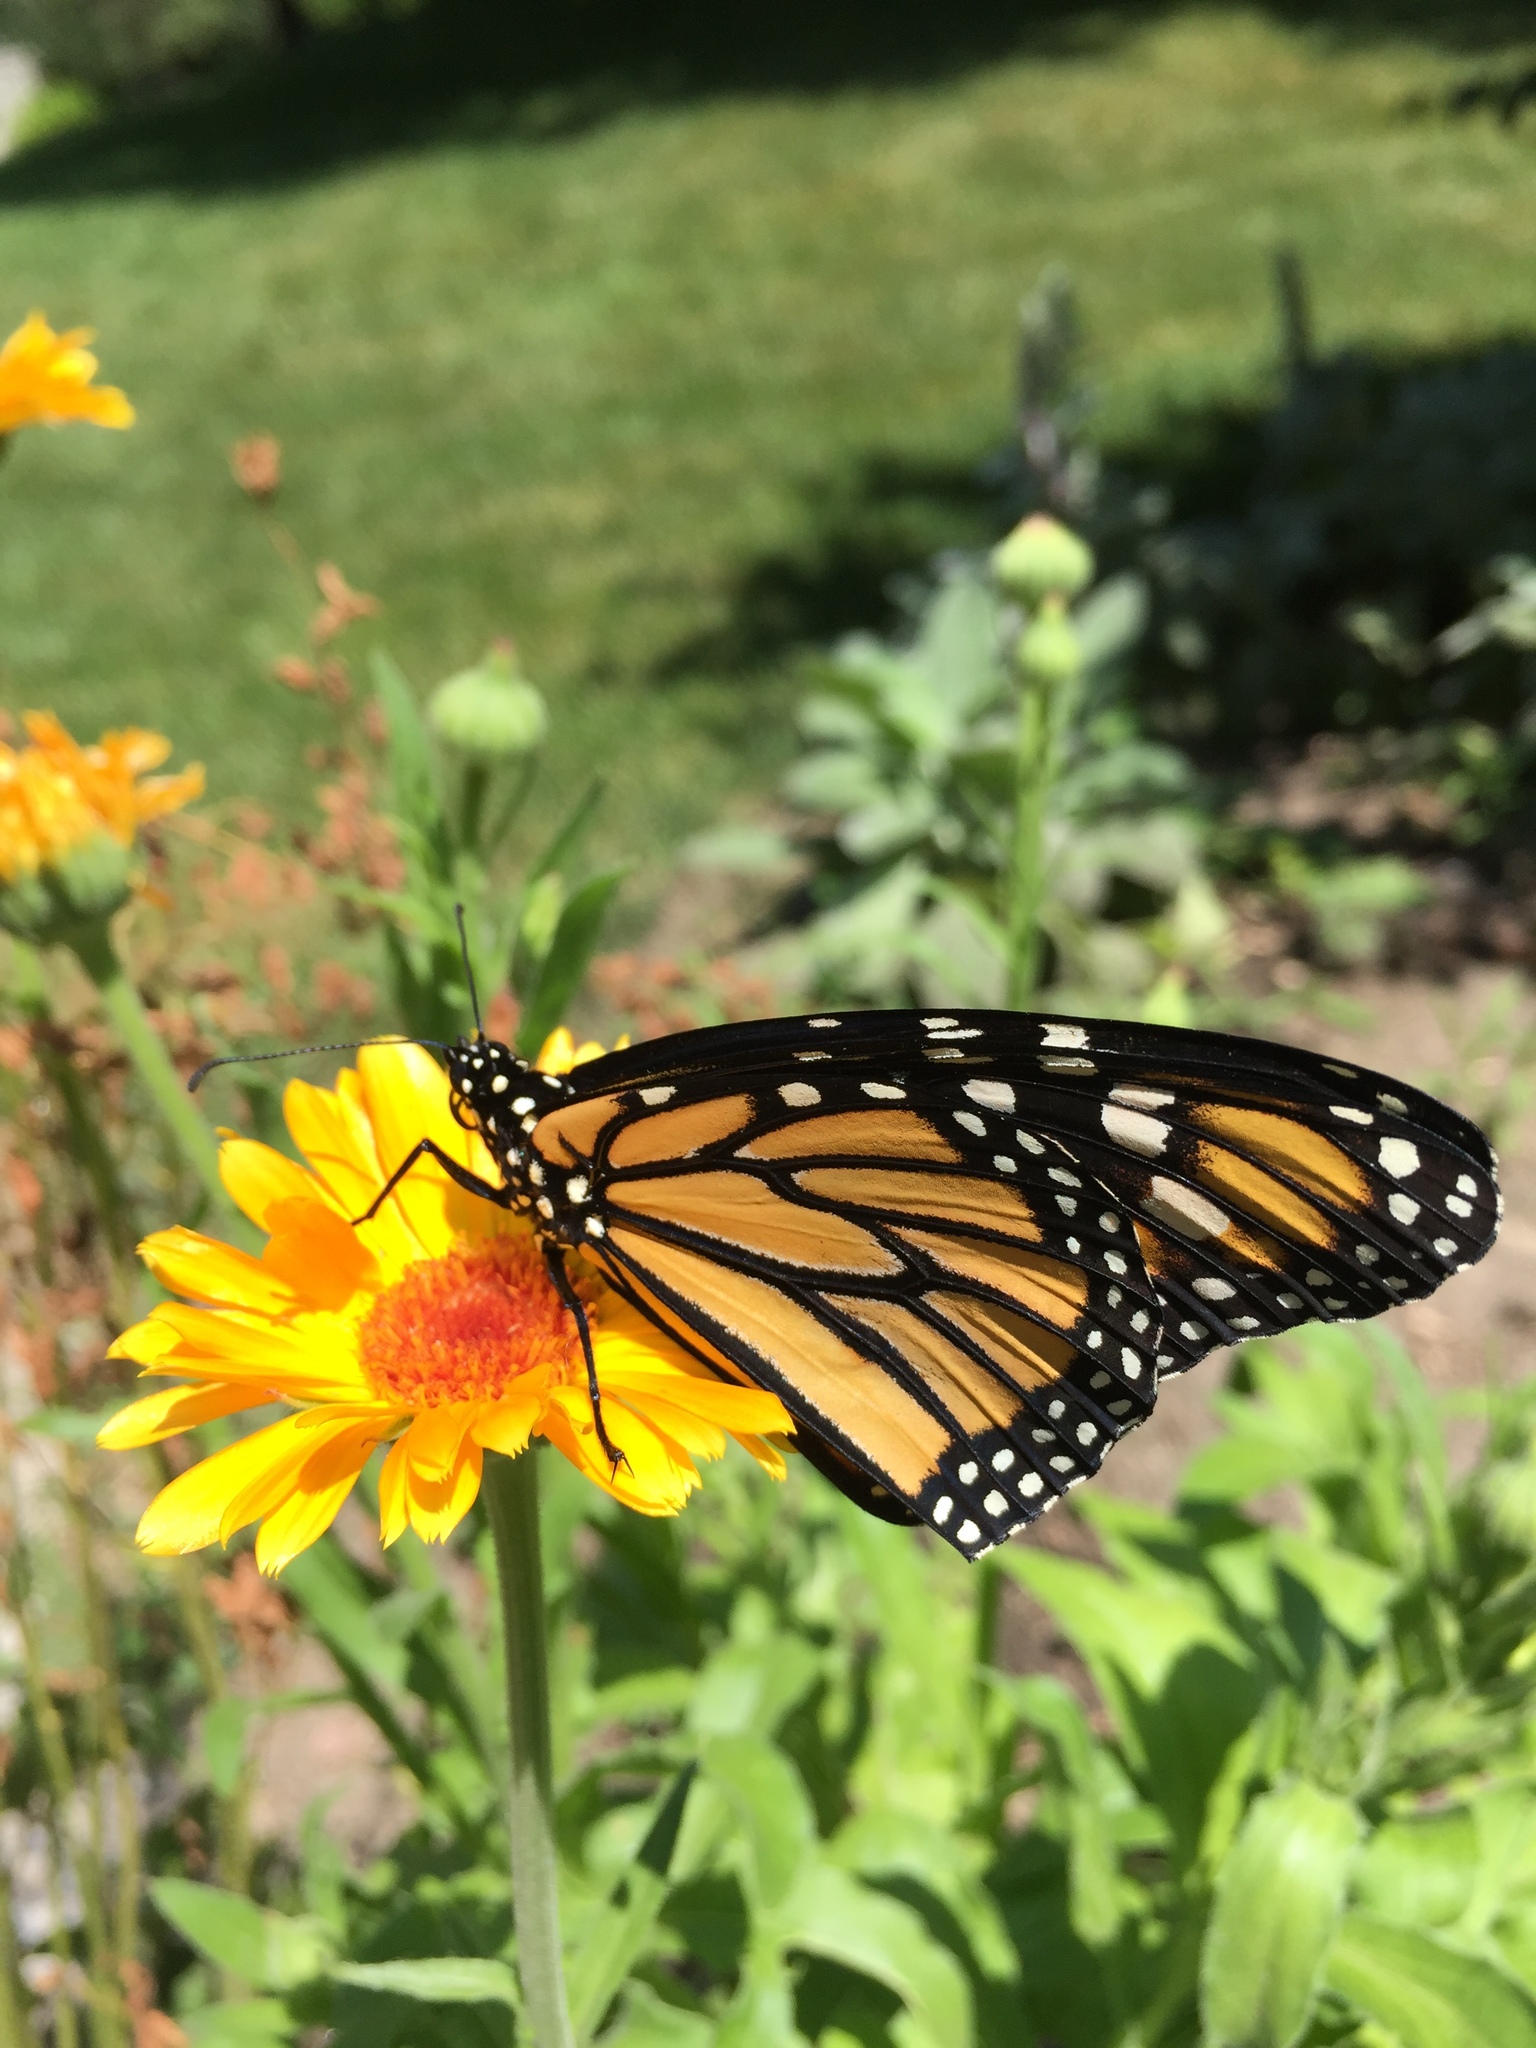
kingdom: Animalia
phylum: Arthropoda
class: Insecta
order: Lepidoptera
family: Nymphalidae
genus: Danaus
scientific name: Danaus plexippus
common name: Monarch
